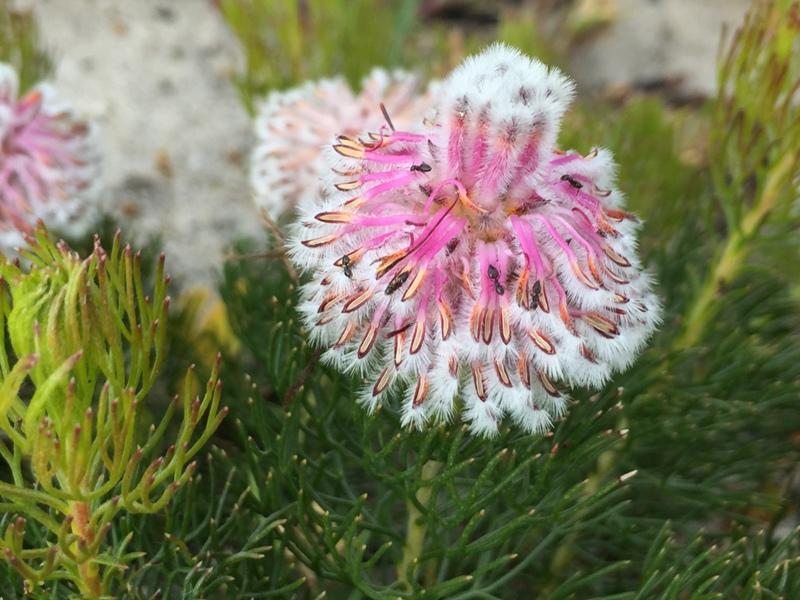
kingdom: Plantae
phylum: Tracheophyta
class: Magnoliopsida
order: Proteales
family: Proteaceae
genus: Serruria
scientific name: Serruria cyanoides
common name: Wynberg spiderhead
